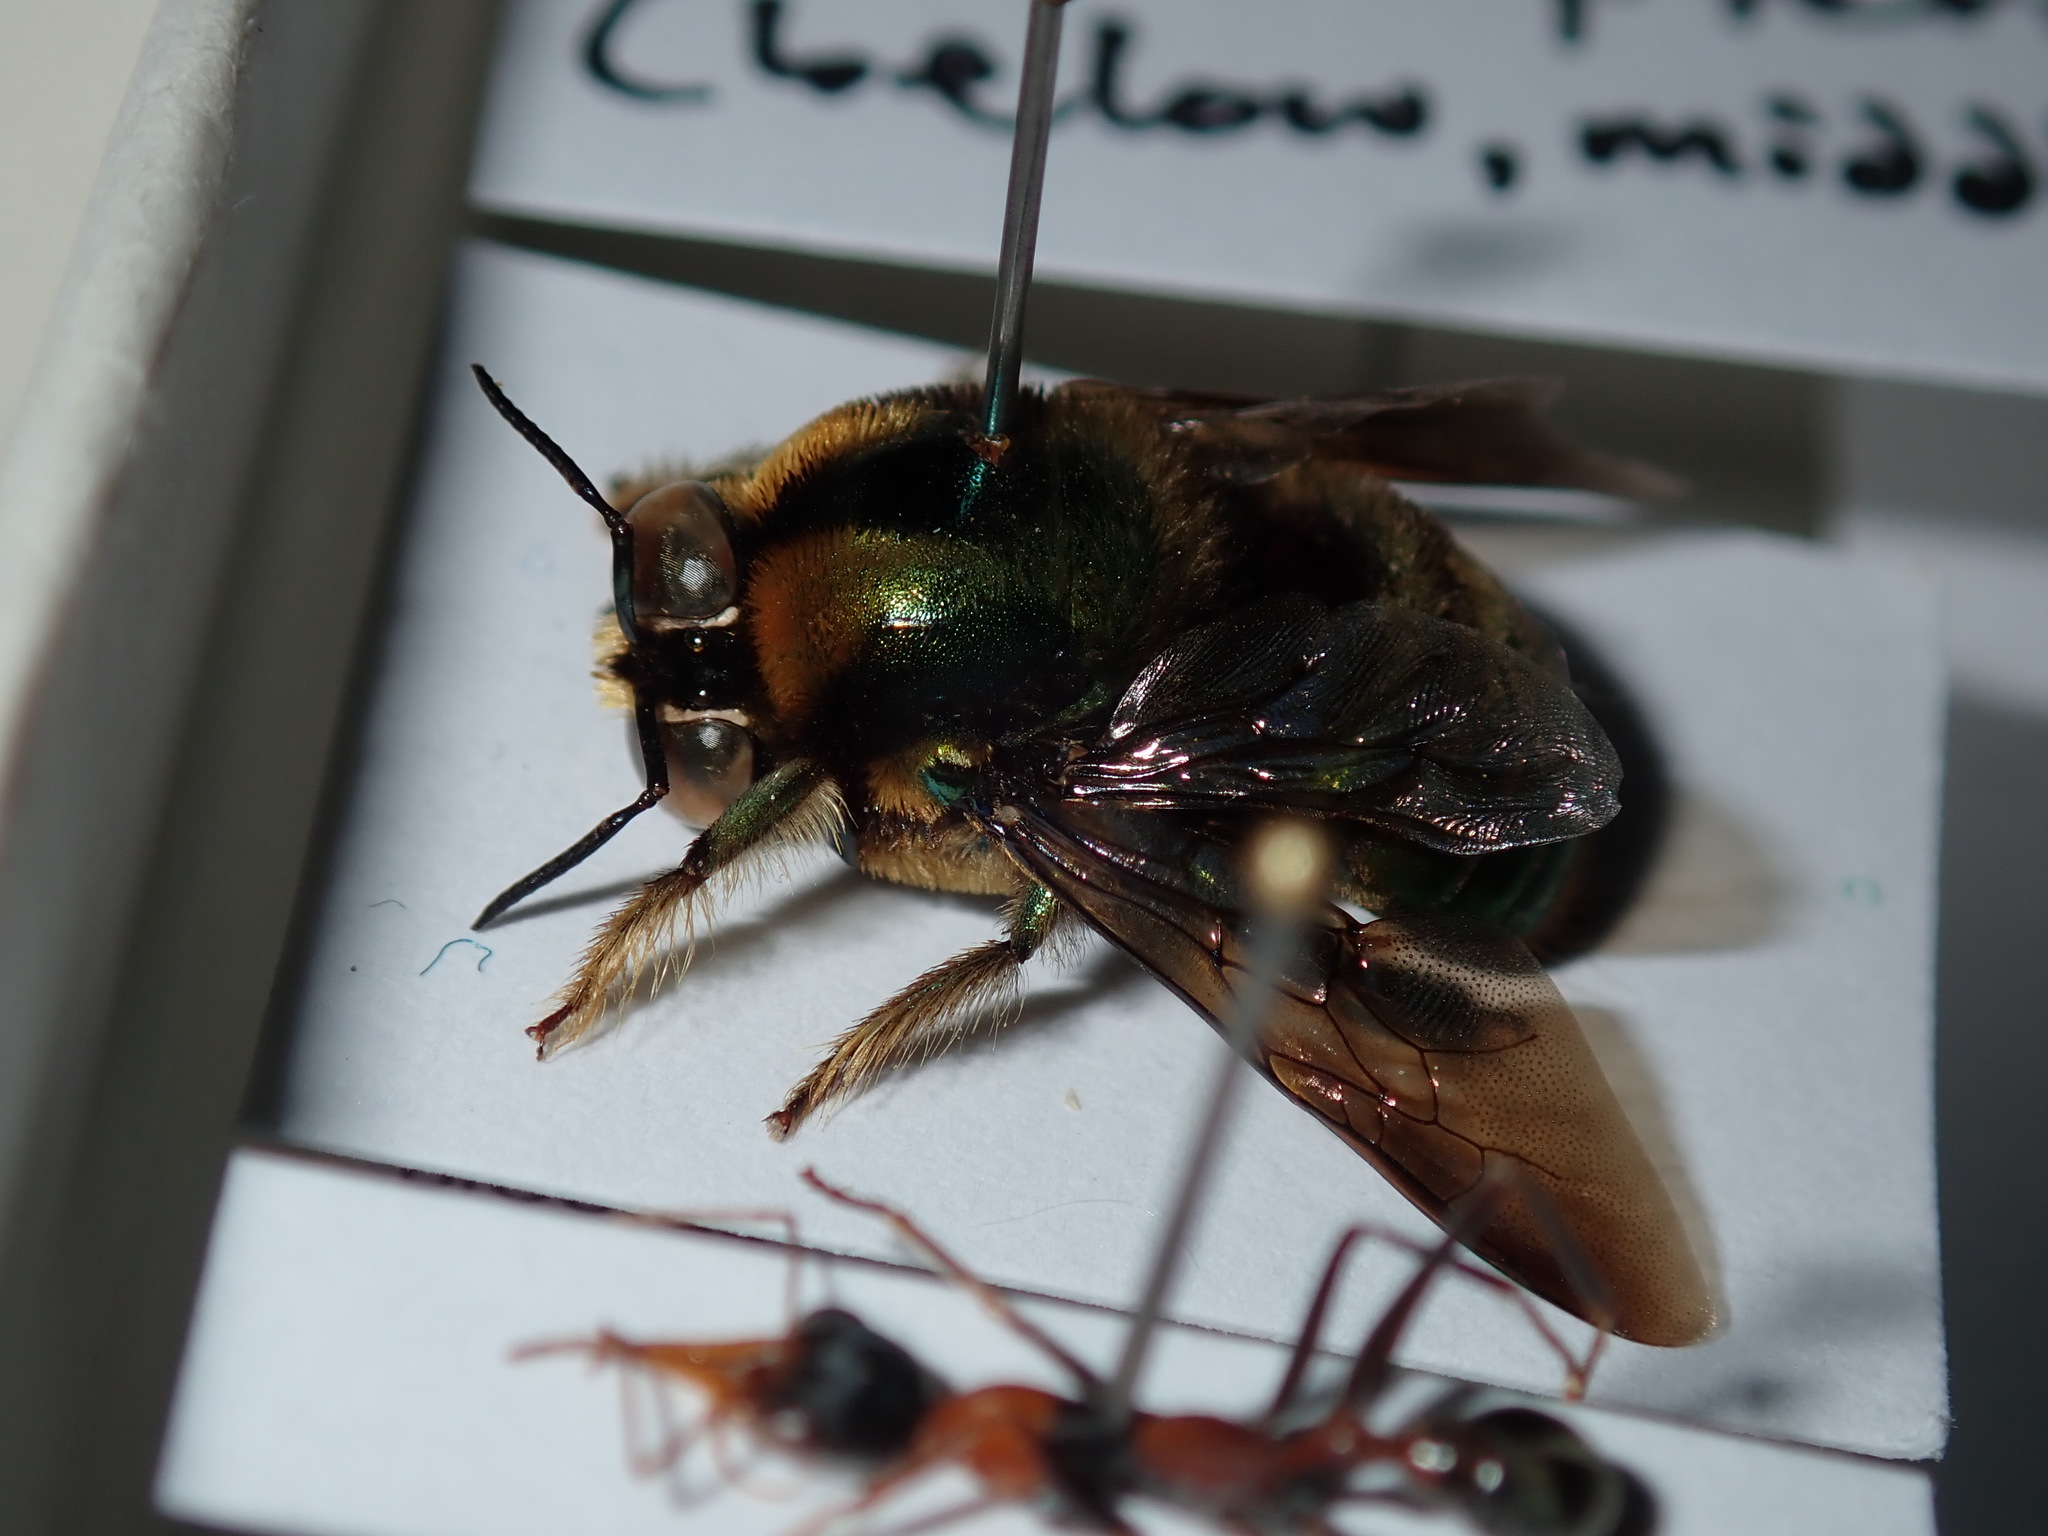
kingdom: Animalia
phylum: Arthropoda
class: Insecta
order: Hymenoptera
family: Apidae
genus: Xylocopa
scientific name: Xylocopa bombylans
